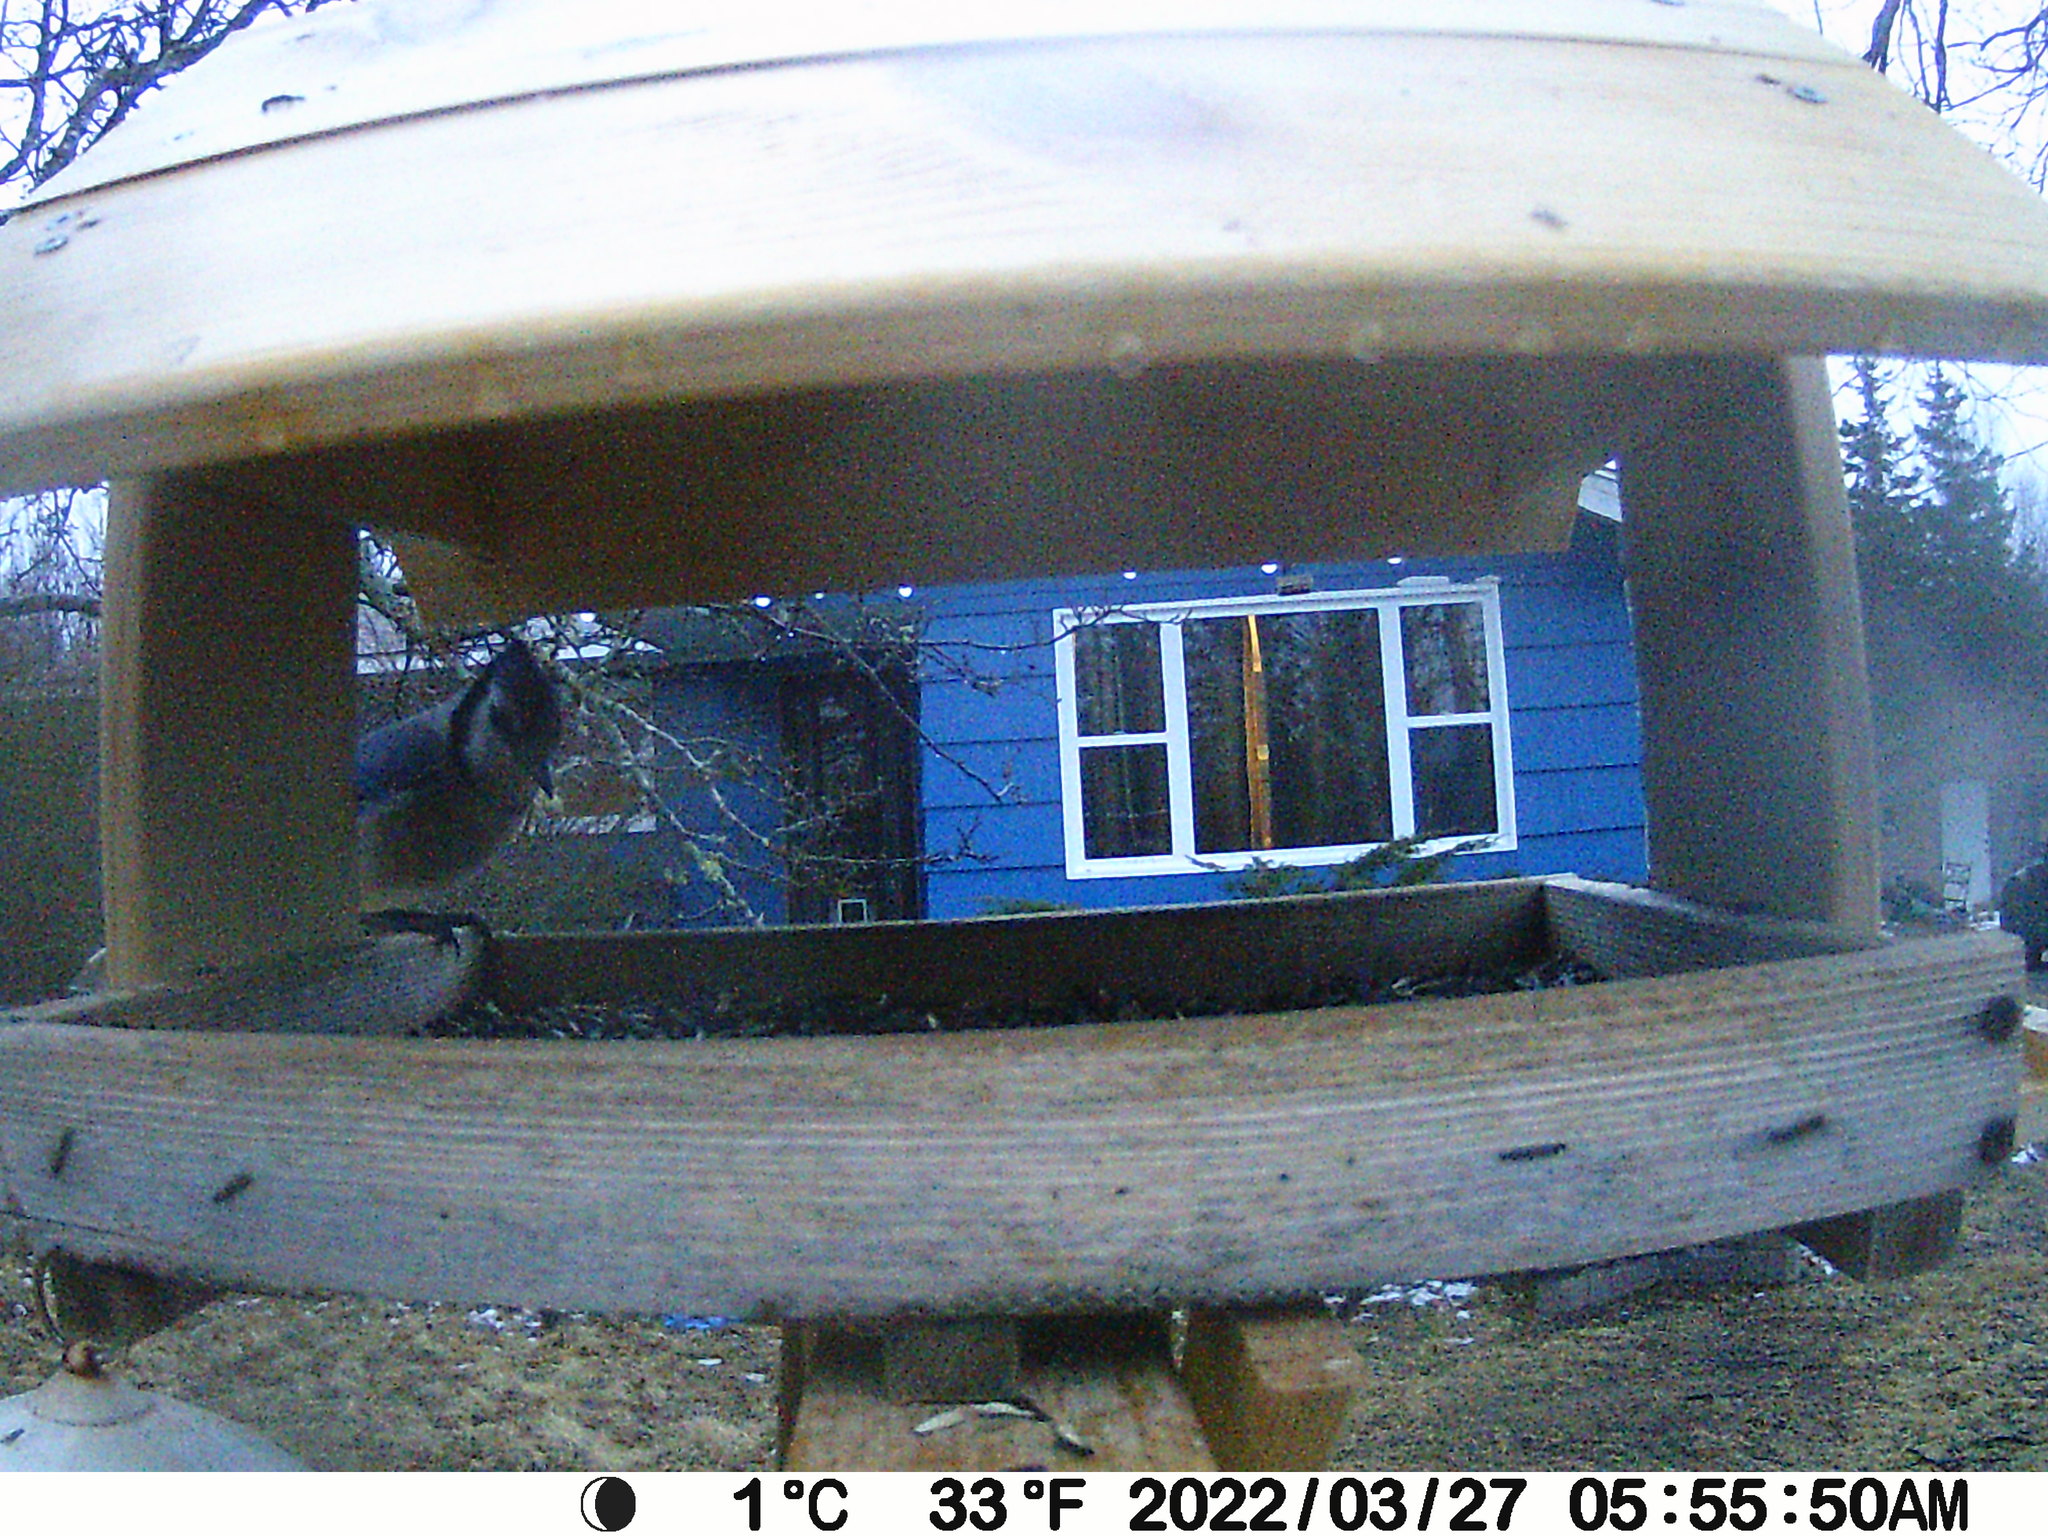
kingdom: Animalia
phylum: Chordata
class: Aves
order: Passeriformes
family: Corvidae
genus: Cyanocitta
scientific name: Cyanocitta cristata
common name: Blue jay
